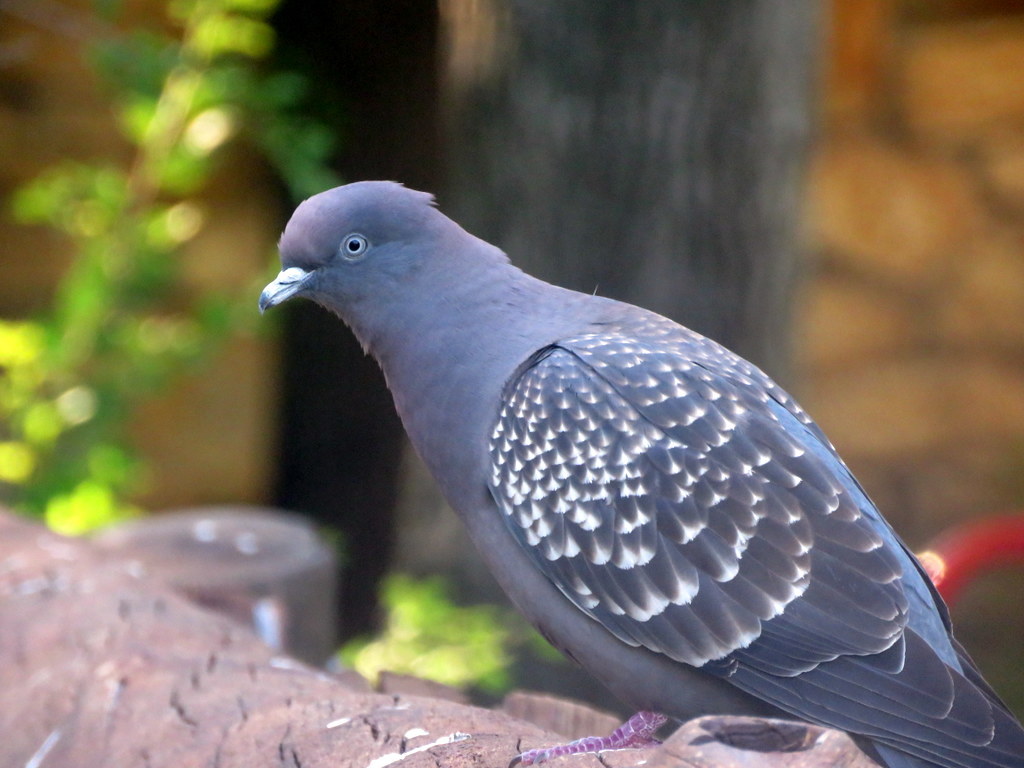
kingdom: Animalia
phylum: Chordata
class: Aves
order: Columbiformes
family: Columbidae
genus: Patagioenas
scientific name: Patagioenas maculosa
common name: Spot-winged pigeon
